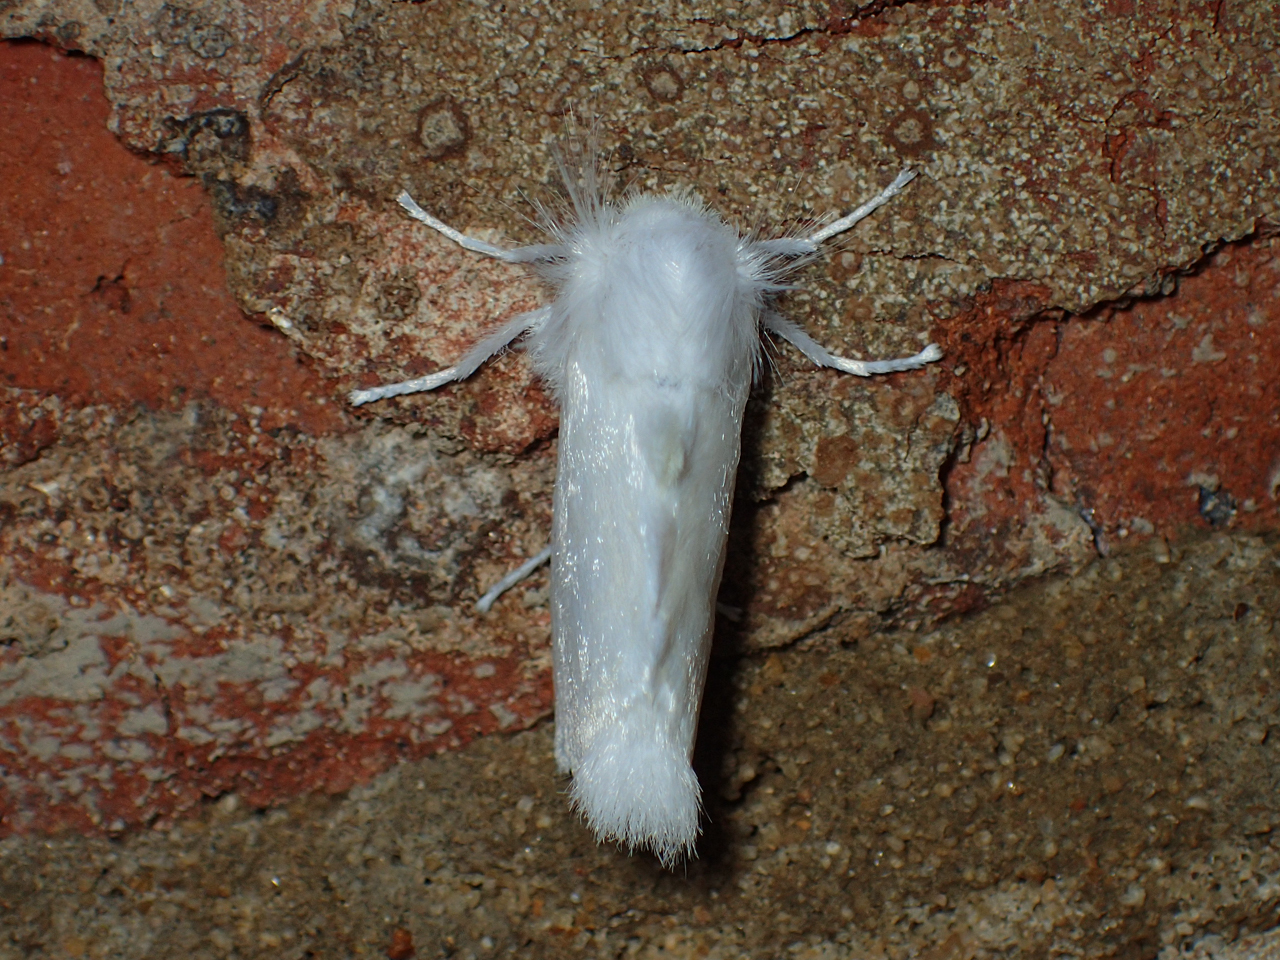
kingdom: Animalia
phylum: Arthropoda
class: Insecta
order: Lepidoptera
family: Megalopygidae
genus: Norape
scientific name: Norape cretata
